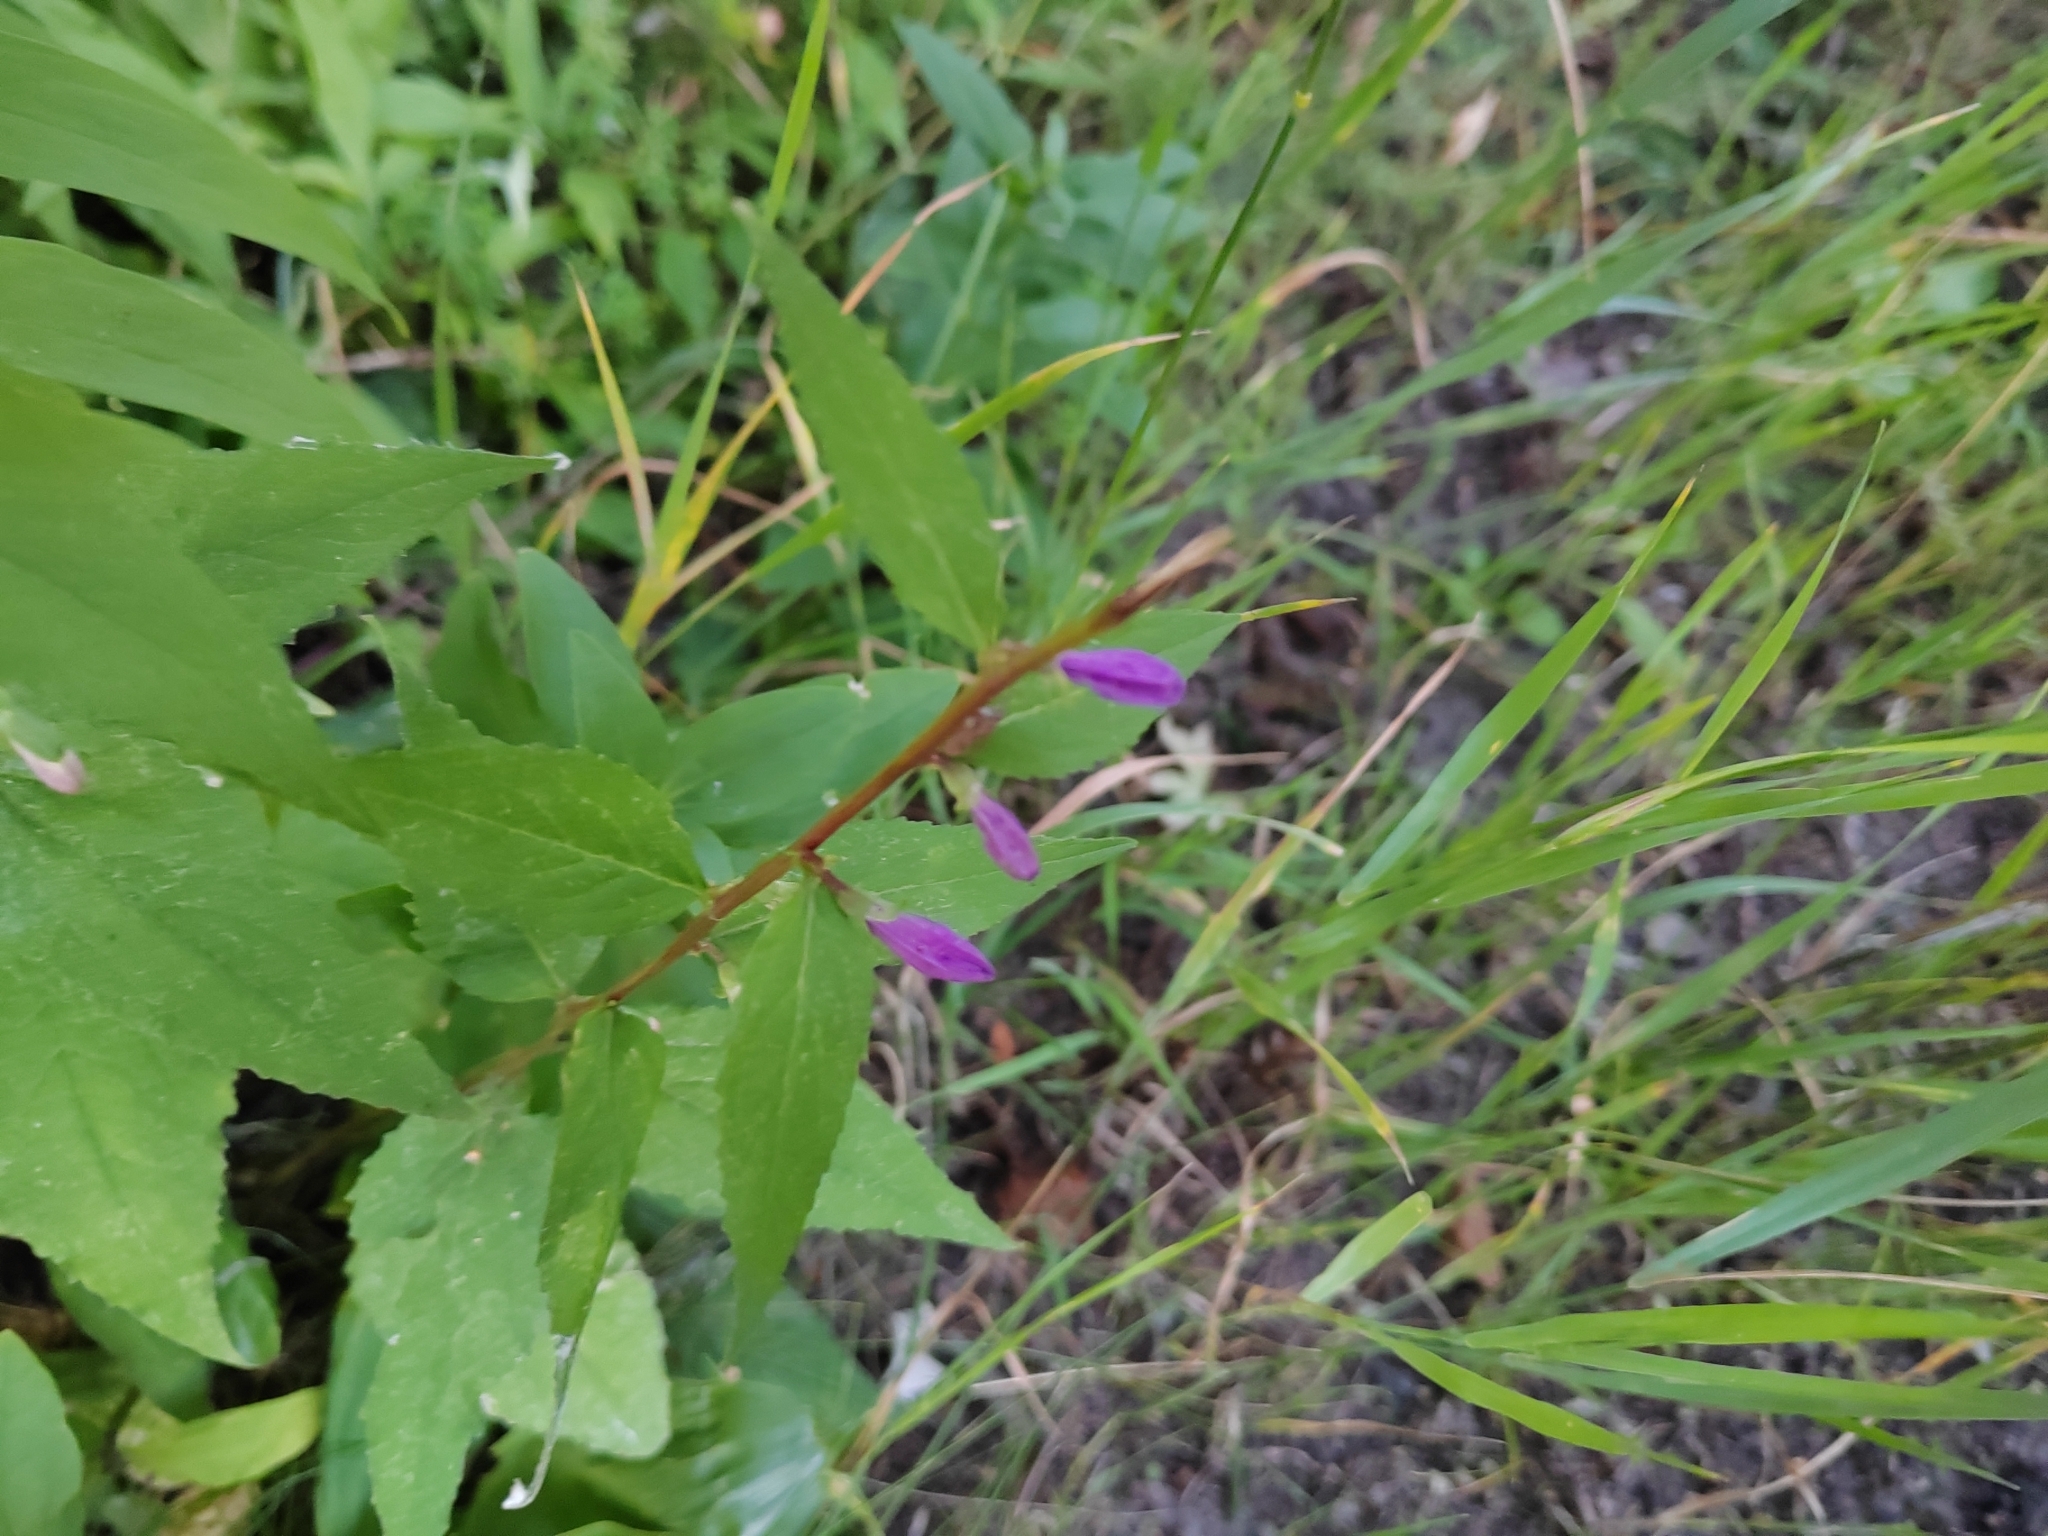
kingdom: Plantae
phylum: Tracheophyta
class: Magnoliopsida
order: Asterales
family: Campanulaceae
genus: Campanula
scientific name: Campanula rapunculoides
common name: Creeping bellflower
